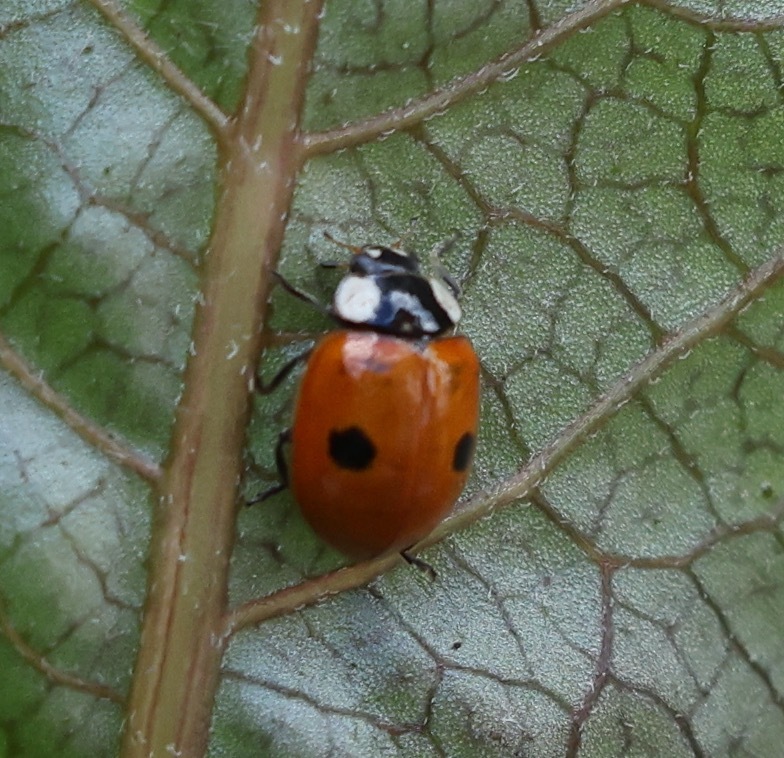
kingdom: Animalia
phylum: Arthropoda
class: Insecta
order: Coleoptera
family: Coccinellidae
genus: Adalia
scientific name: Adalia bipunctata
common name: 2-spot ladybird
